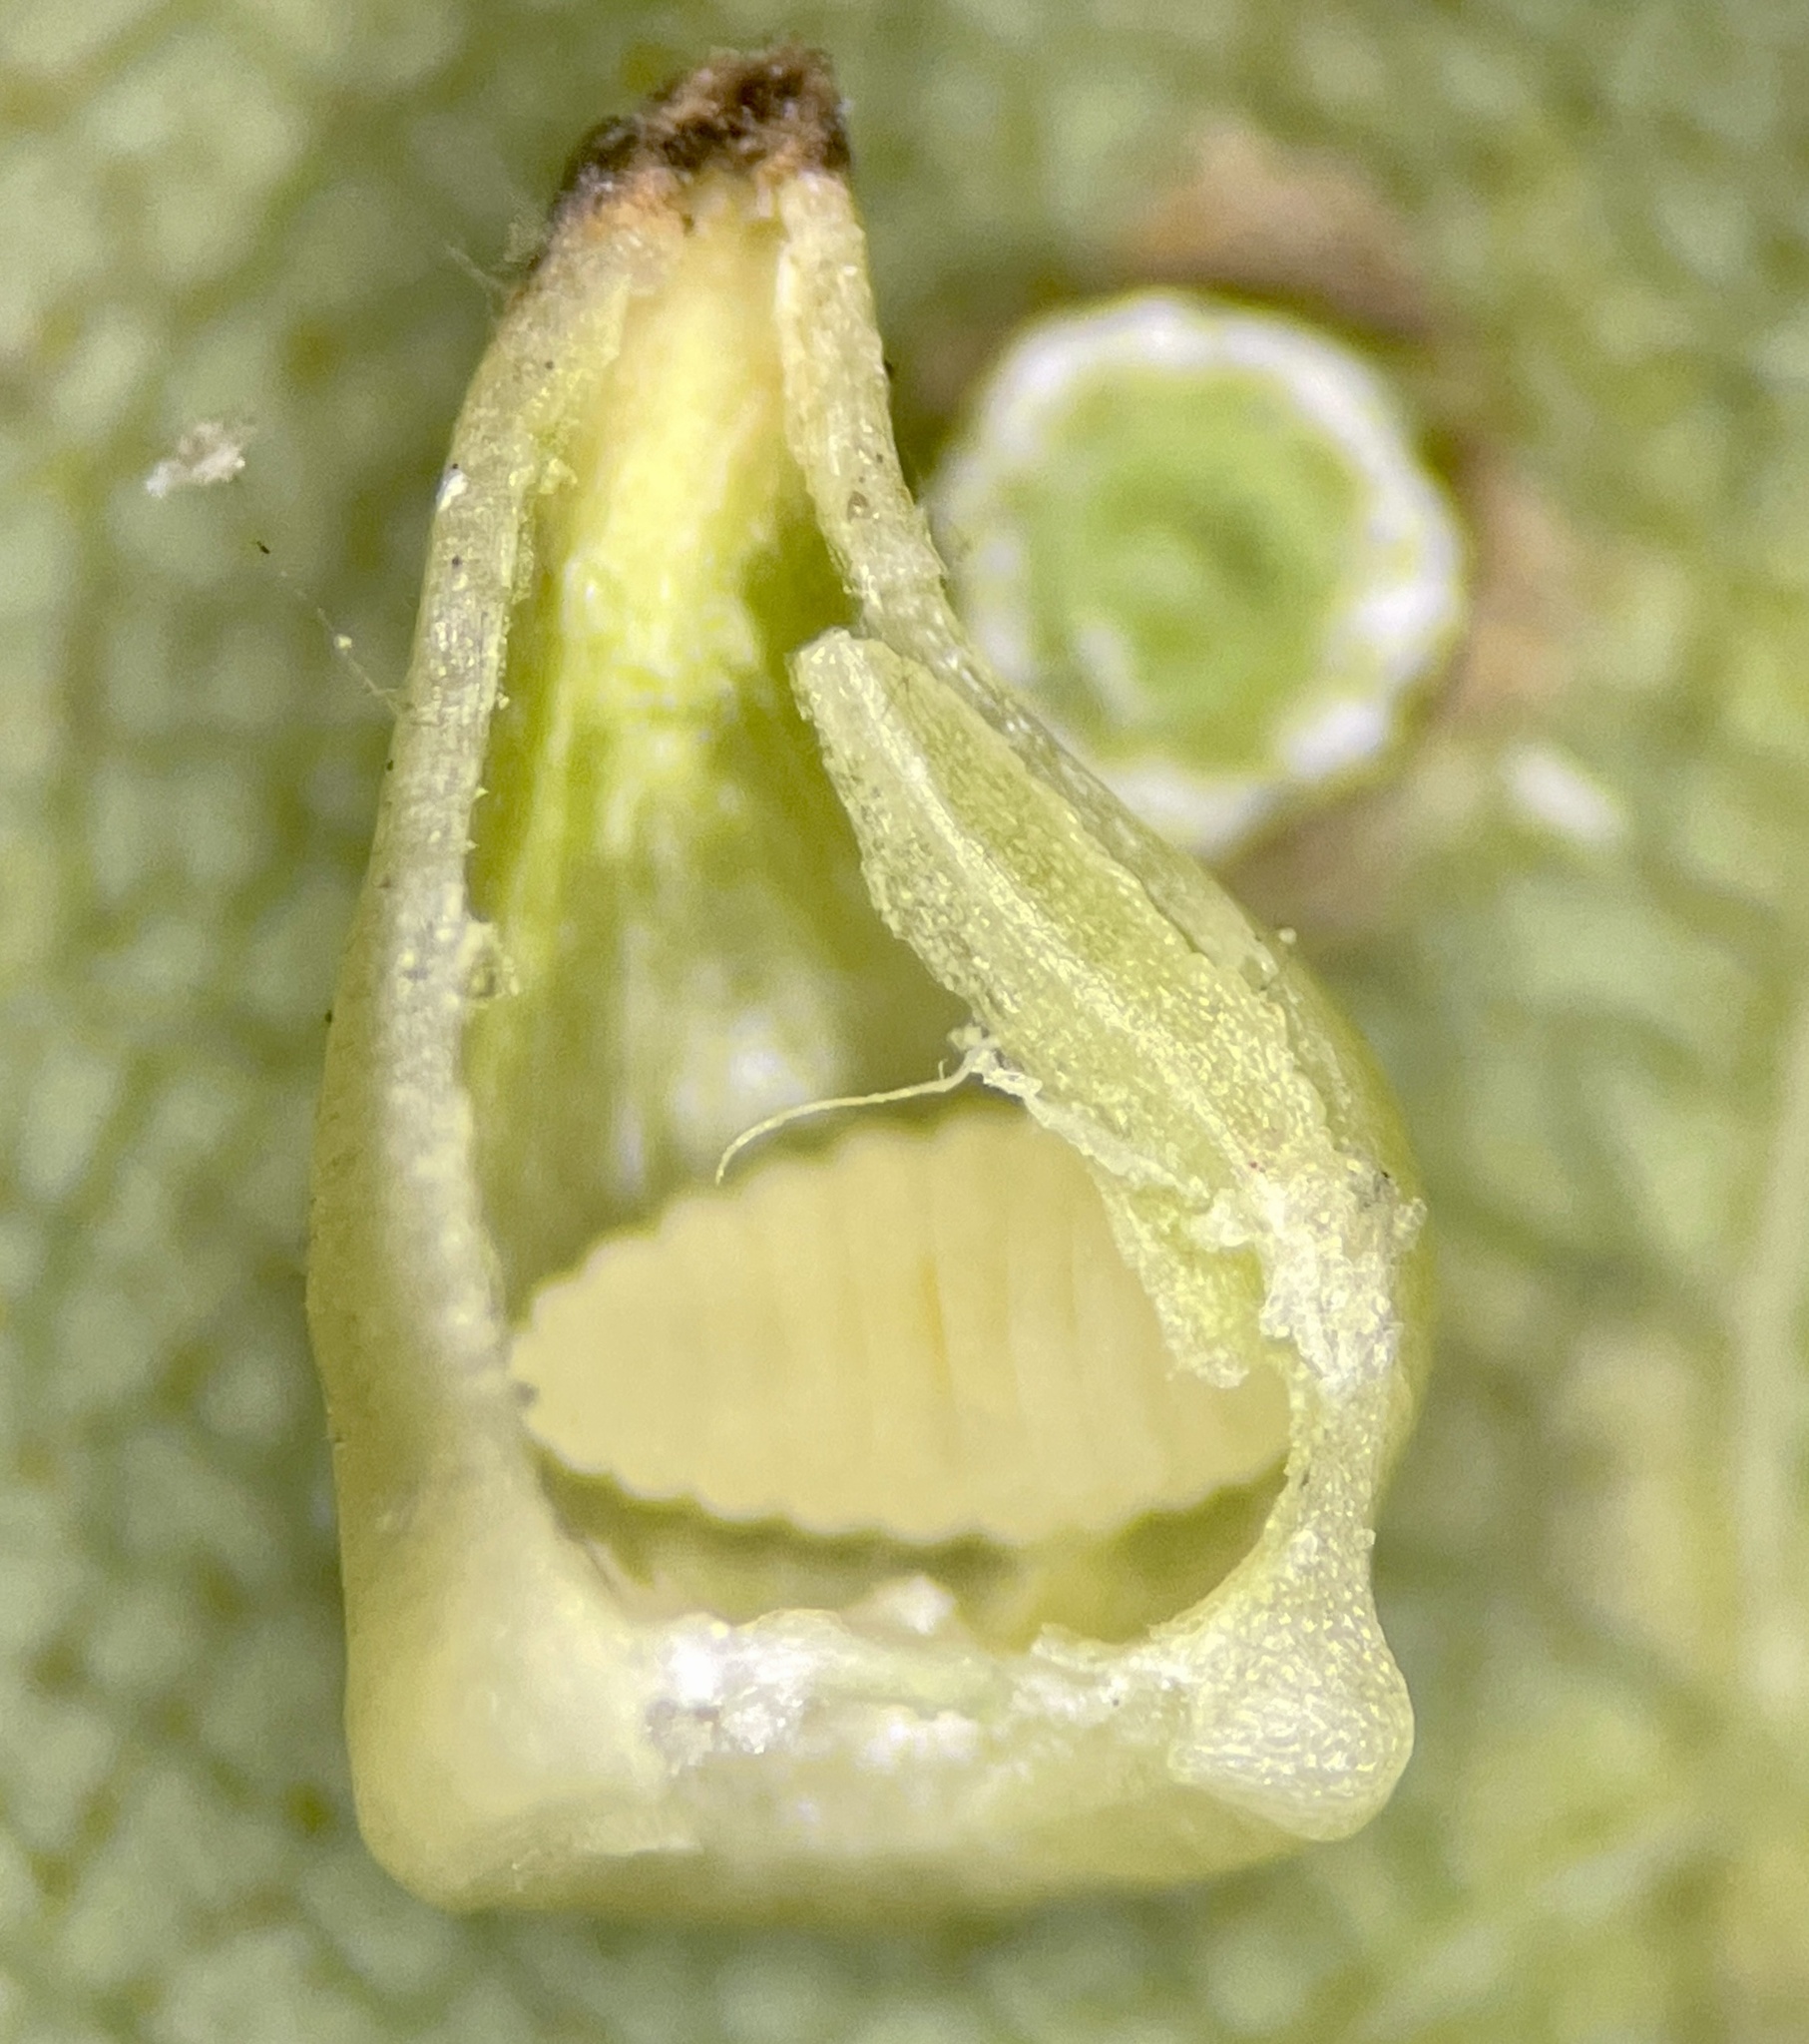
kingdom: Animalia
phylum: Arthropoda
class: Insecta
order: Diptera
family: Cecidomyiidae
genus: Caryomyia
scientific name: Caryomyia shmoo
